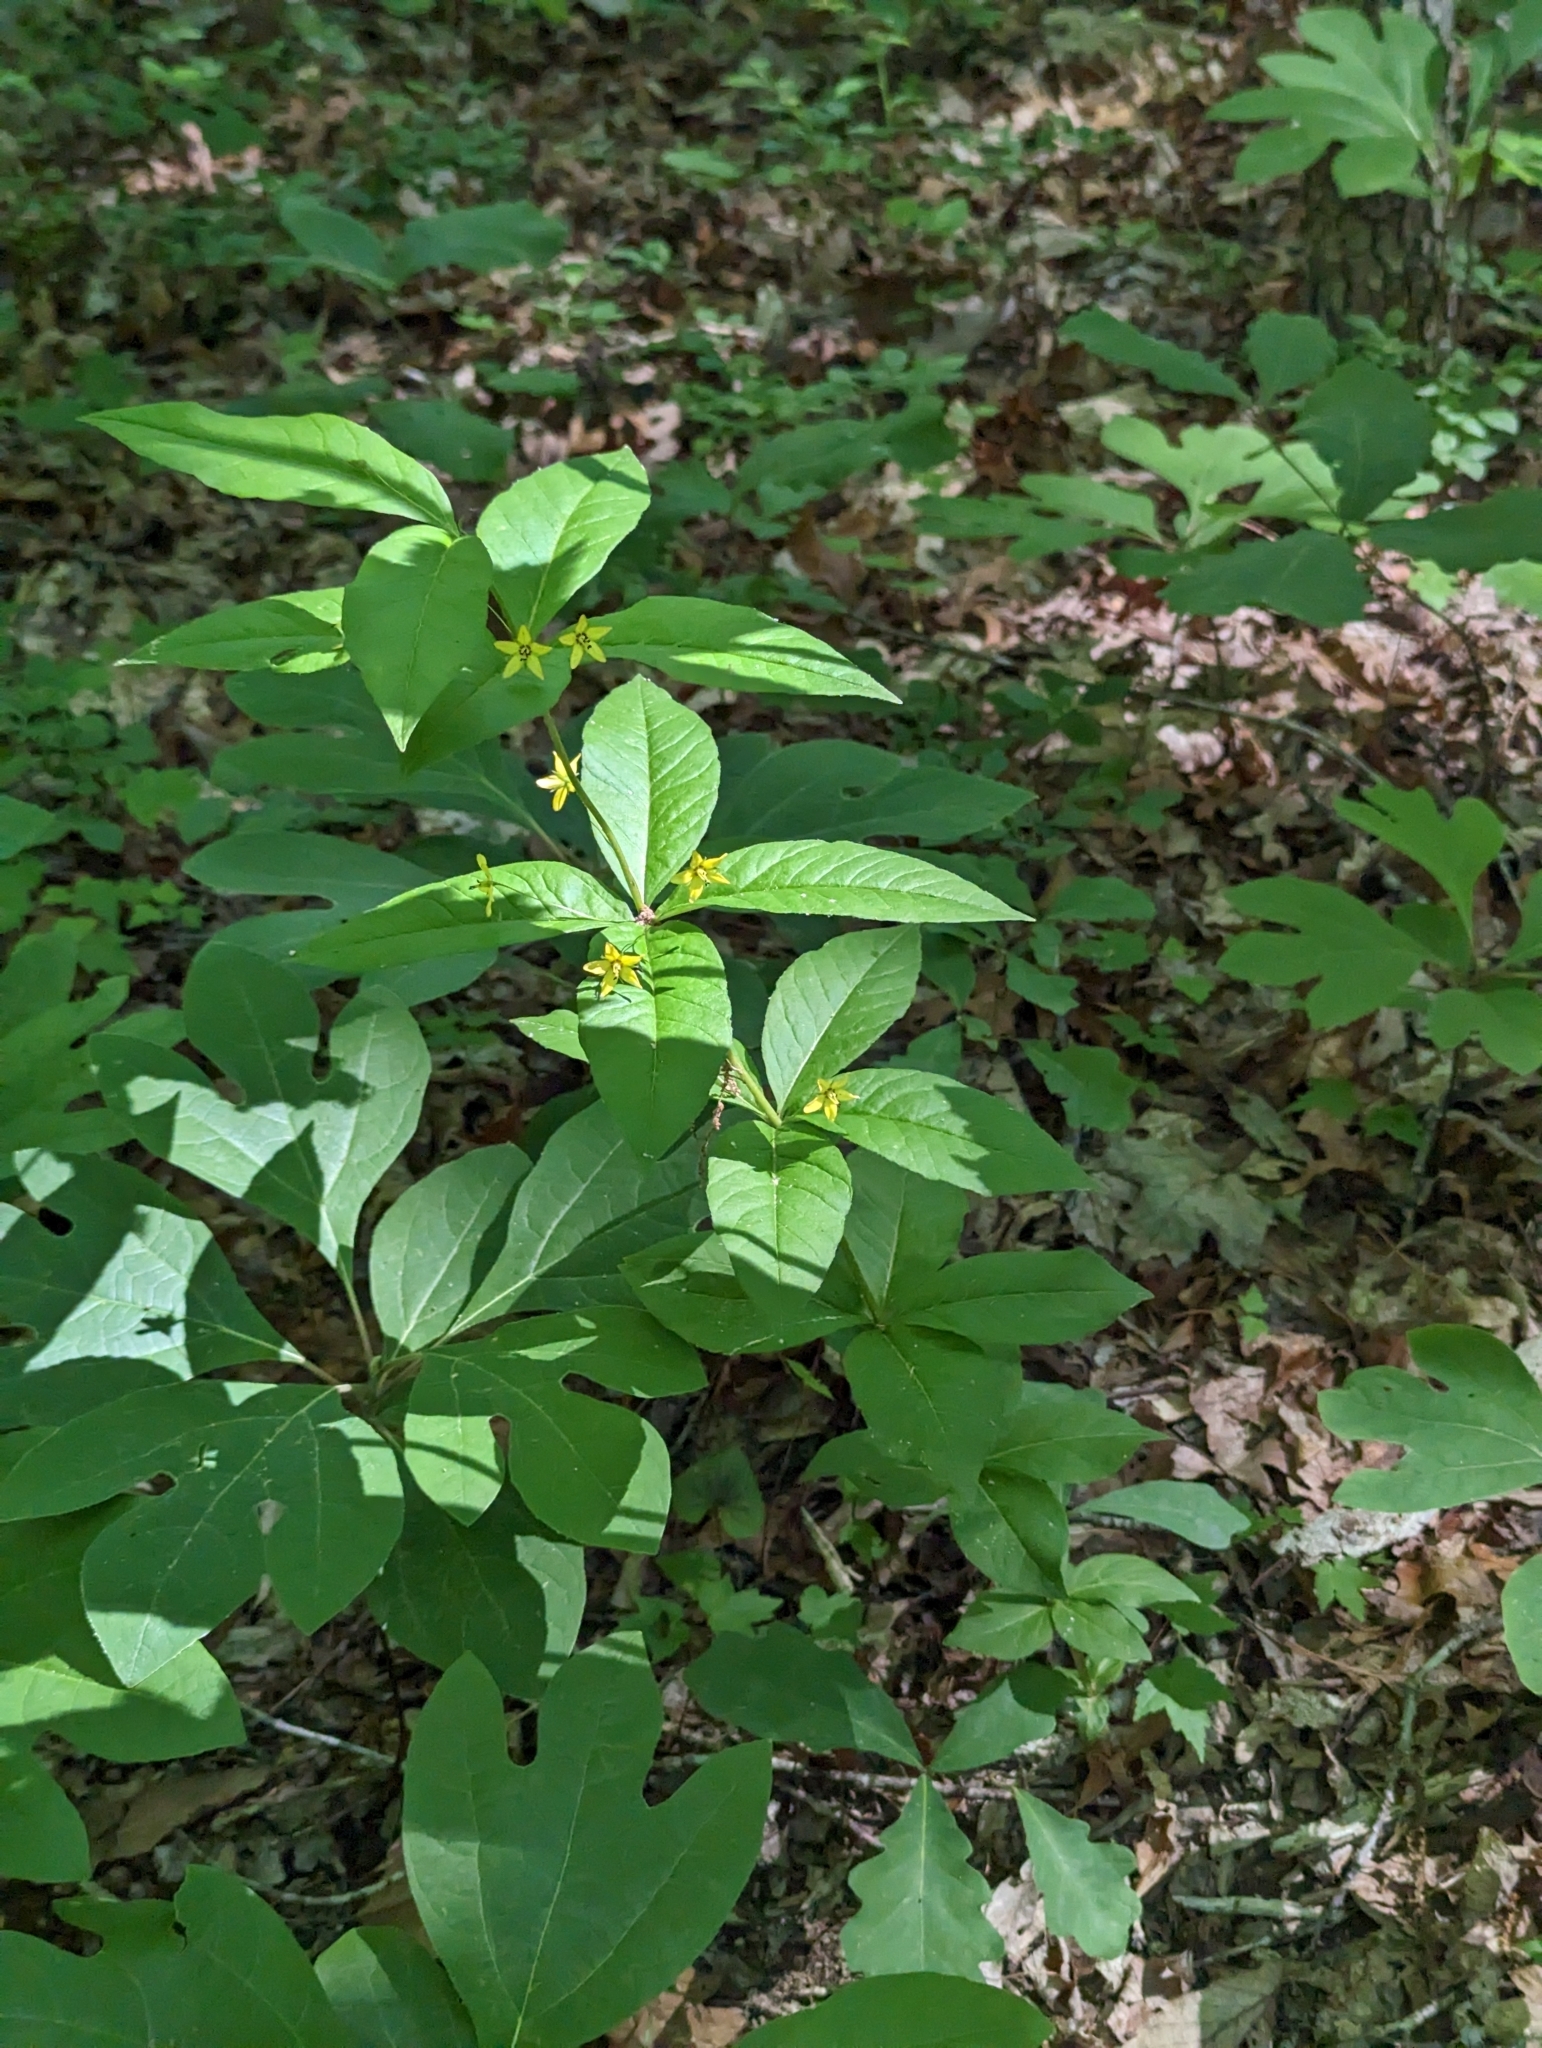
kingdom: Plantae
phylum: Tracheophyta
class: Magnoliopsida
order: Ericales
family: Primulaceae
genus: Lysimachia
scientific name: Lysimachia quadrifolia
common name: Whorled loosestrife
